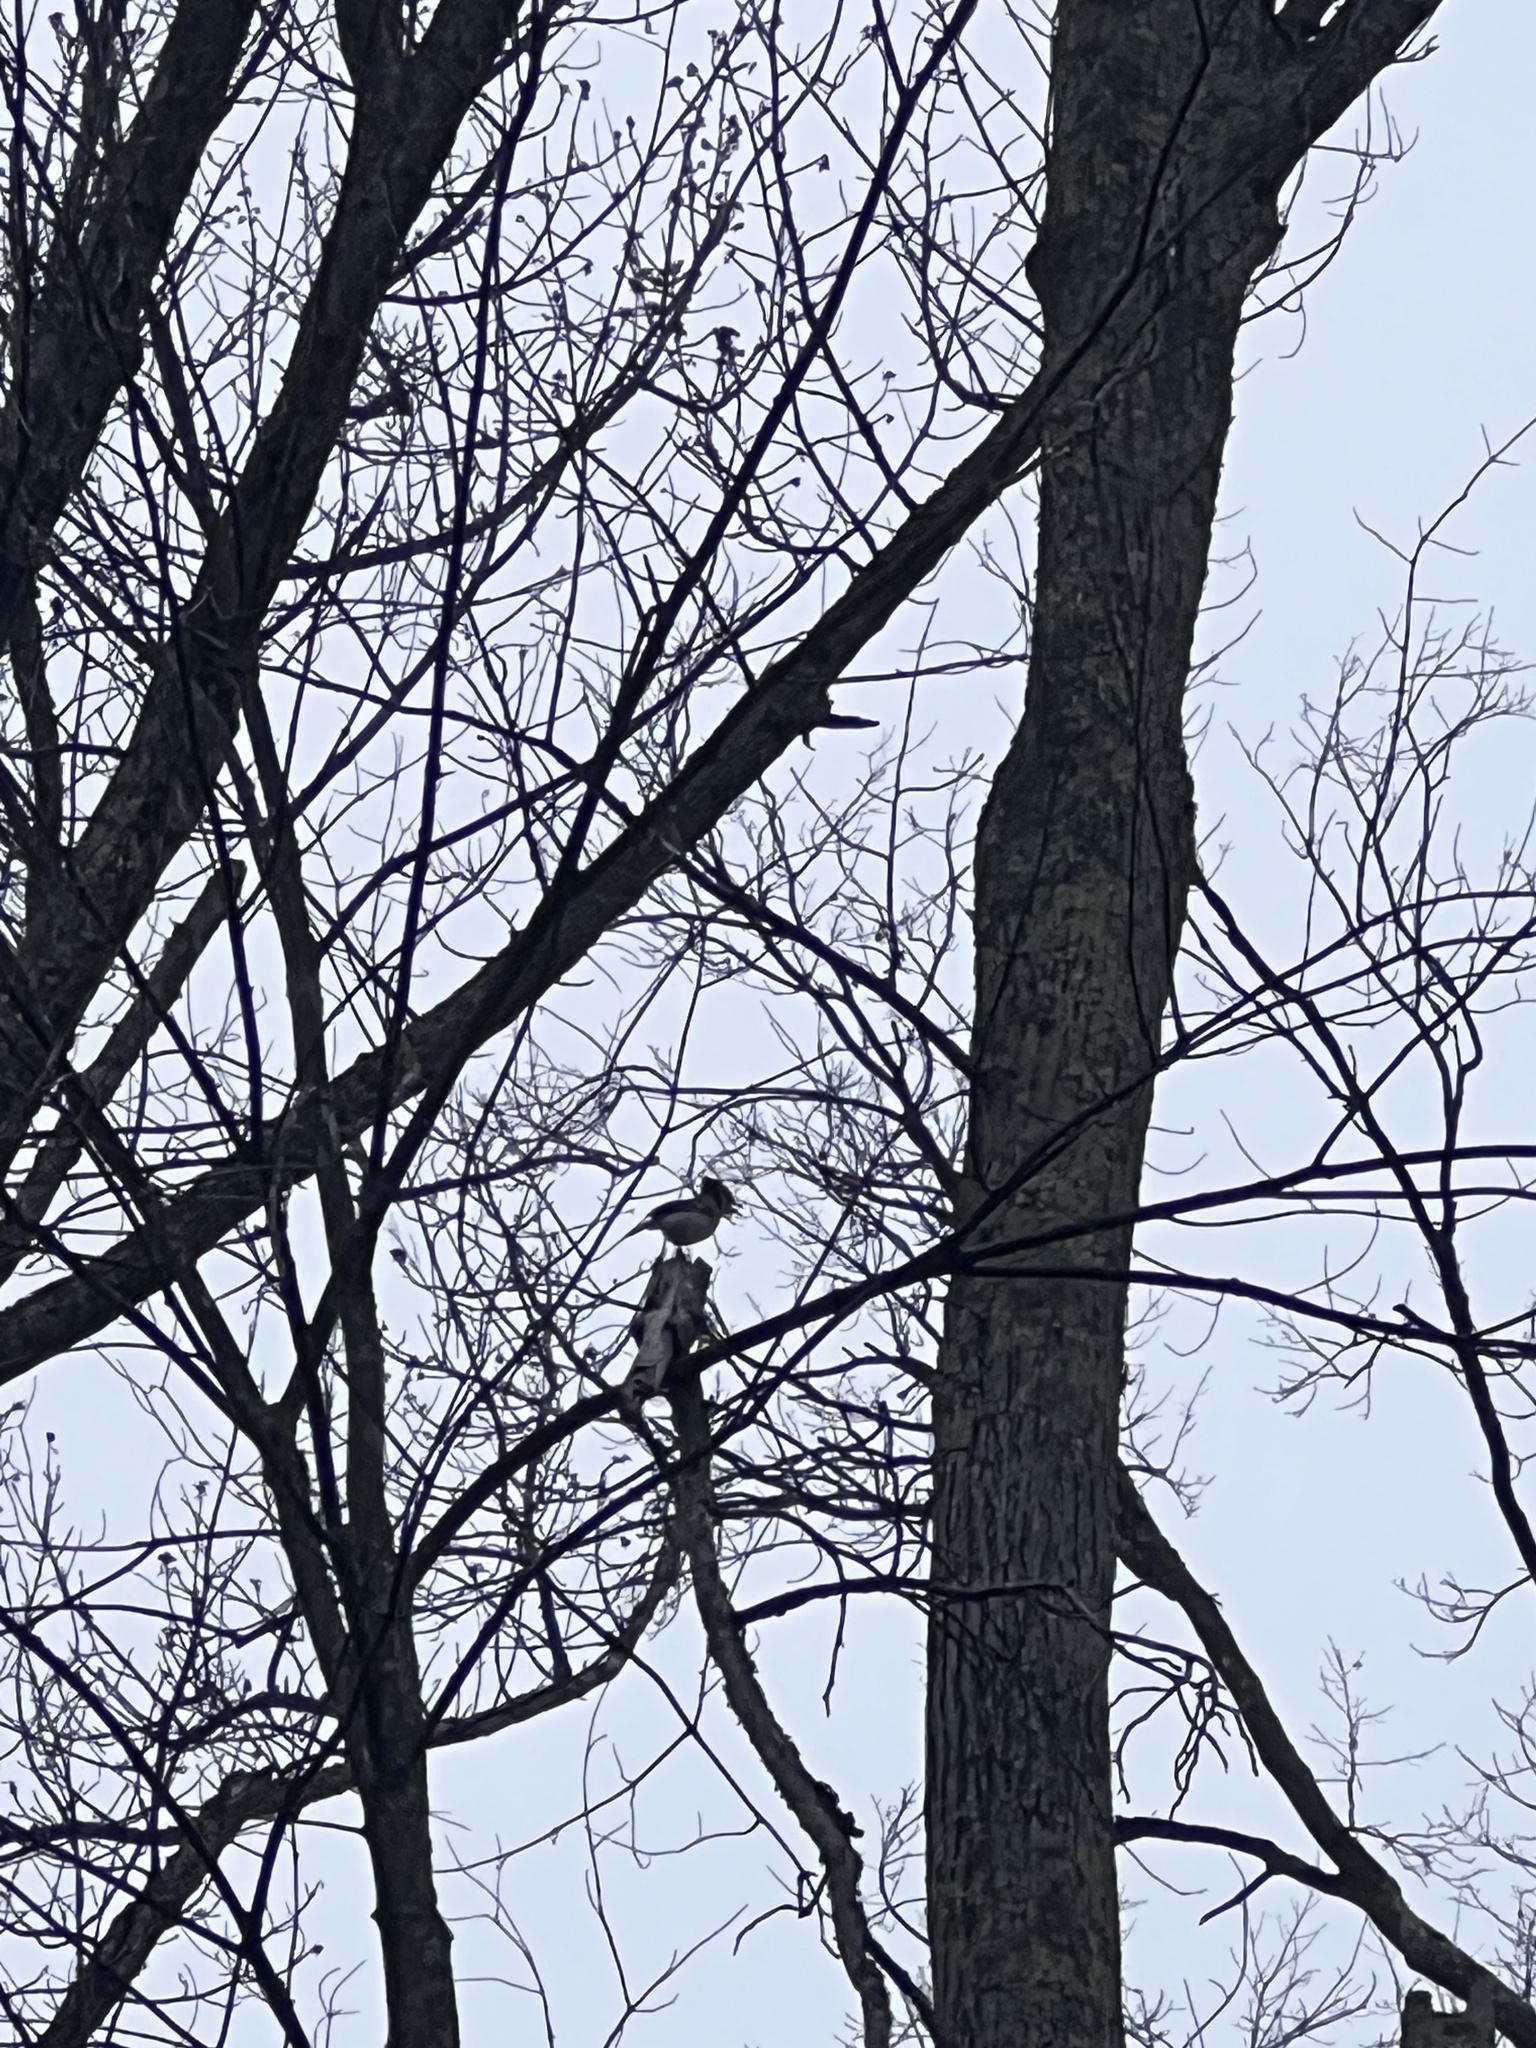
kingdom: Animalia
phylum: Chordata
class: Aves
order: Passeriformes
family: Corvidae
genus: Cyanocitta
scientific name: Cyanocitta cristata
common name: Blue jay
